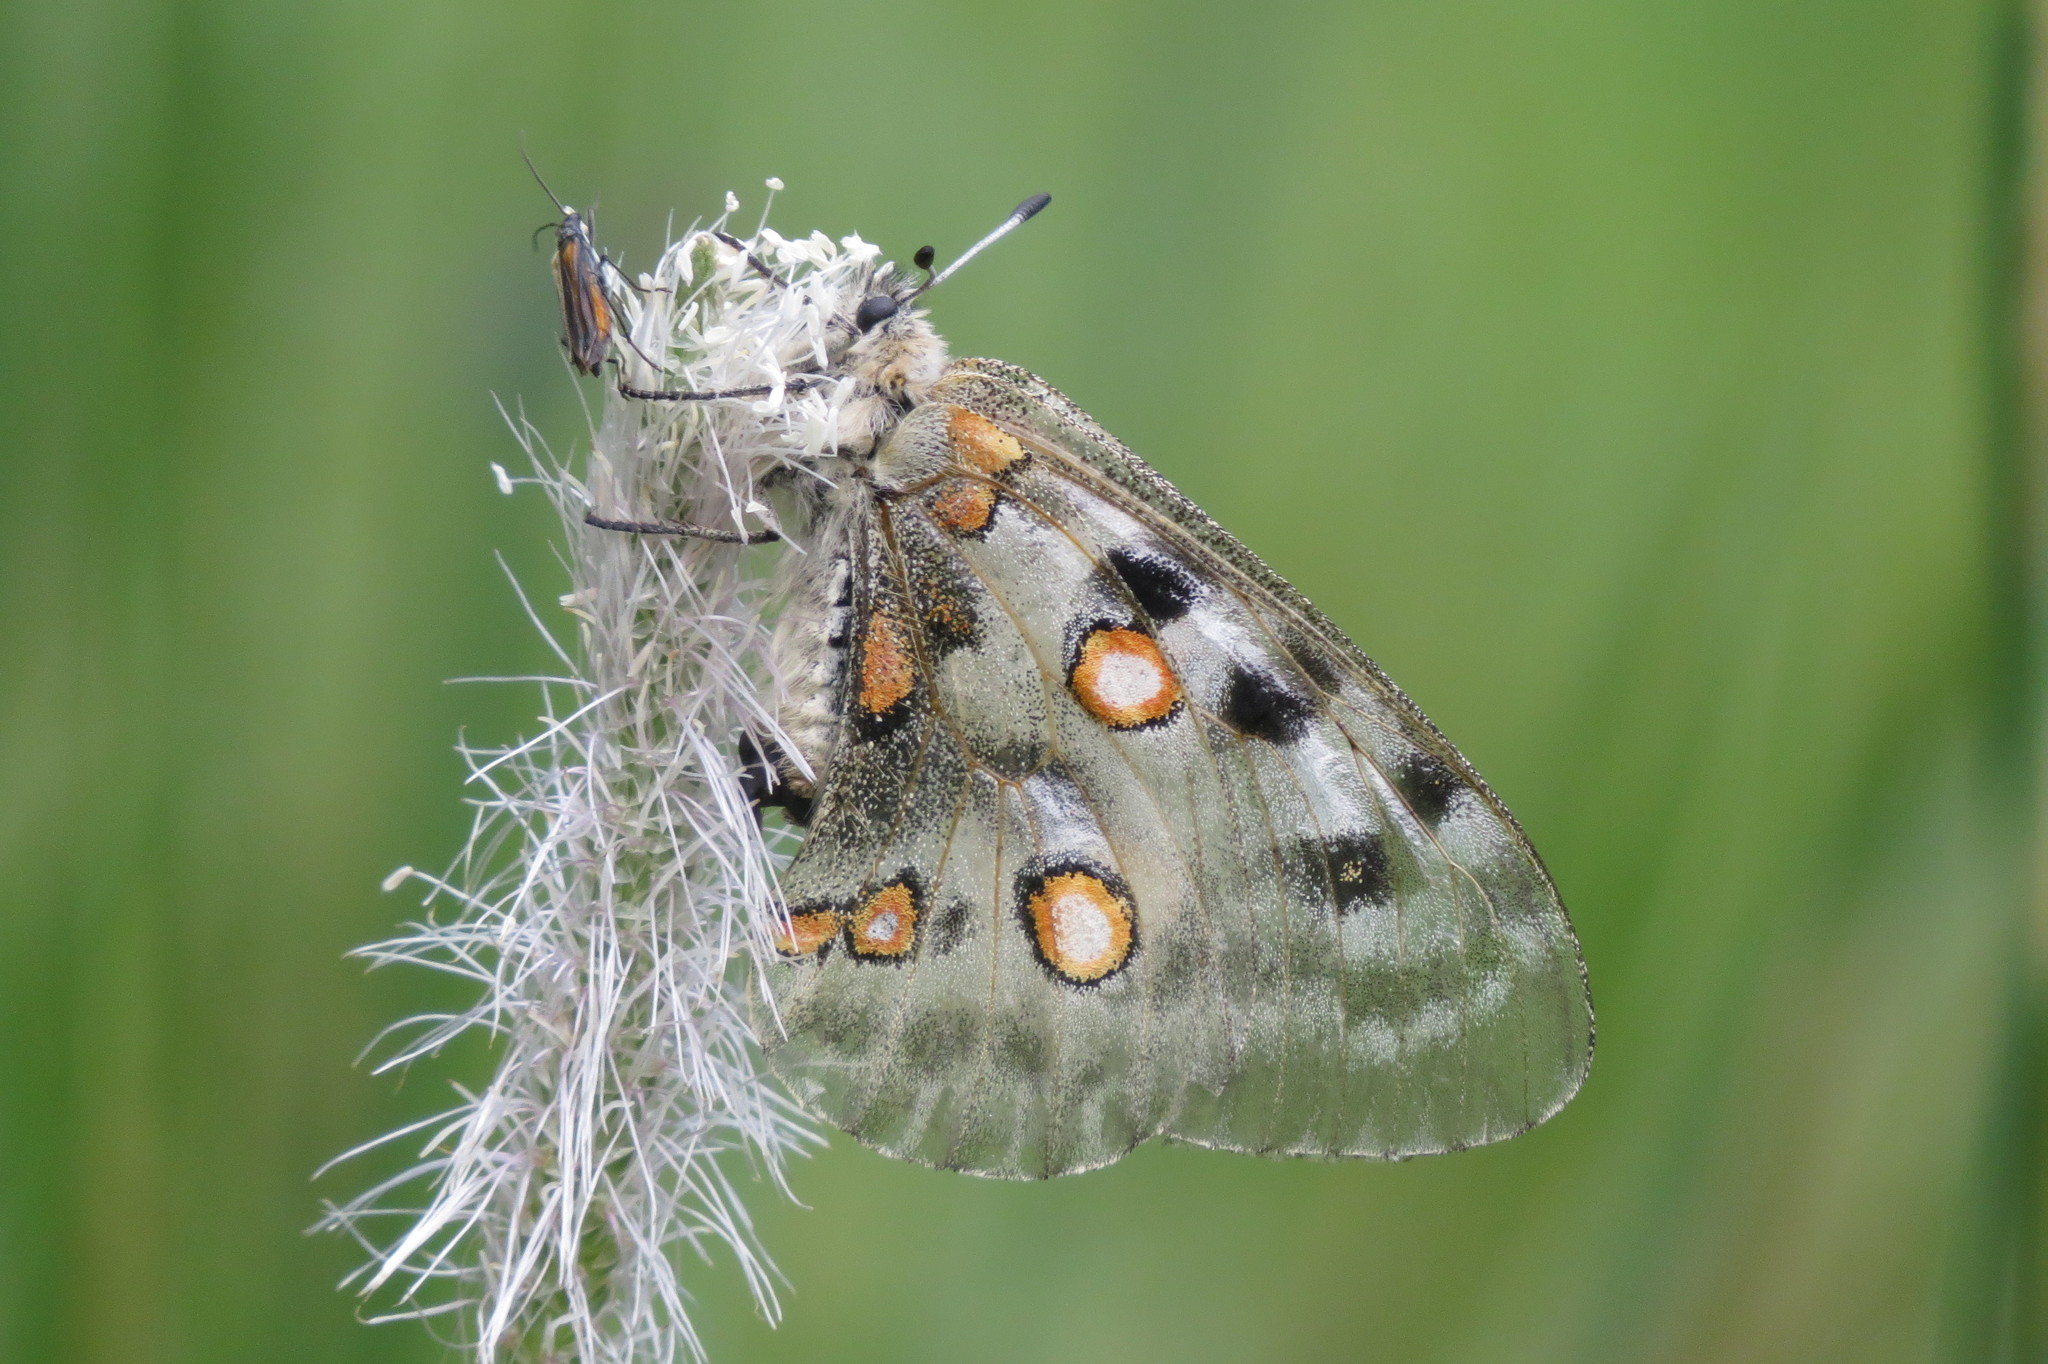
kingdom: Animalia
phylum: Arthropoda
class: Insecta
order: Lepidoptera
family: Papilionidae
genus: Parnassius
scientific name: Parnassius apollo
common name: Apollo
